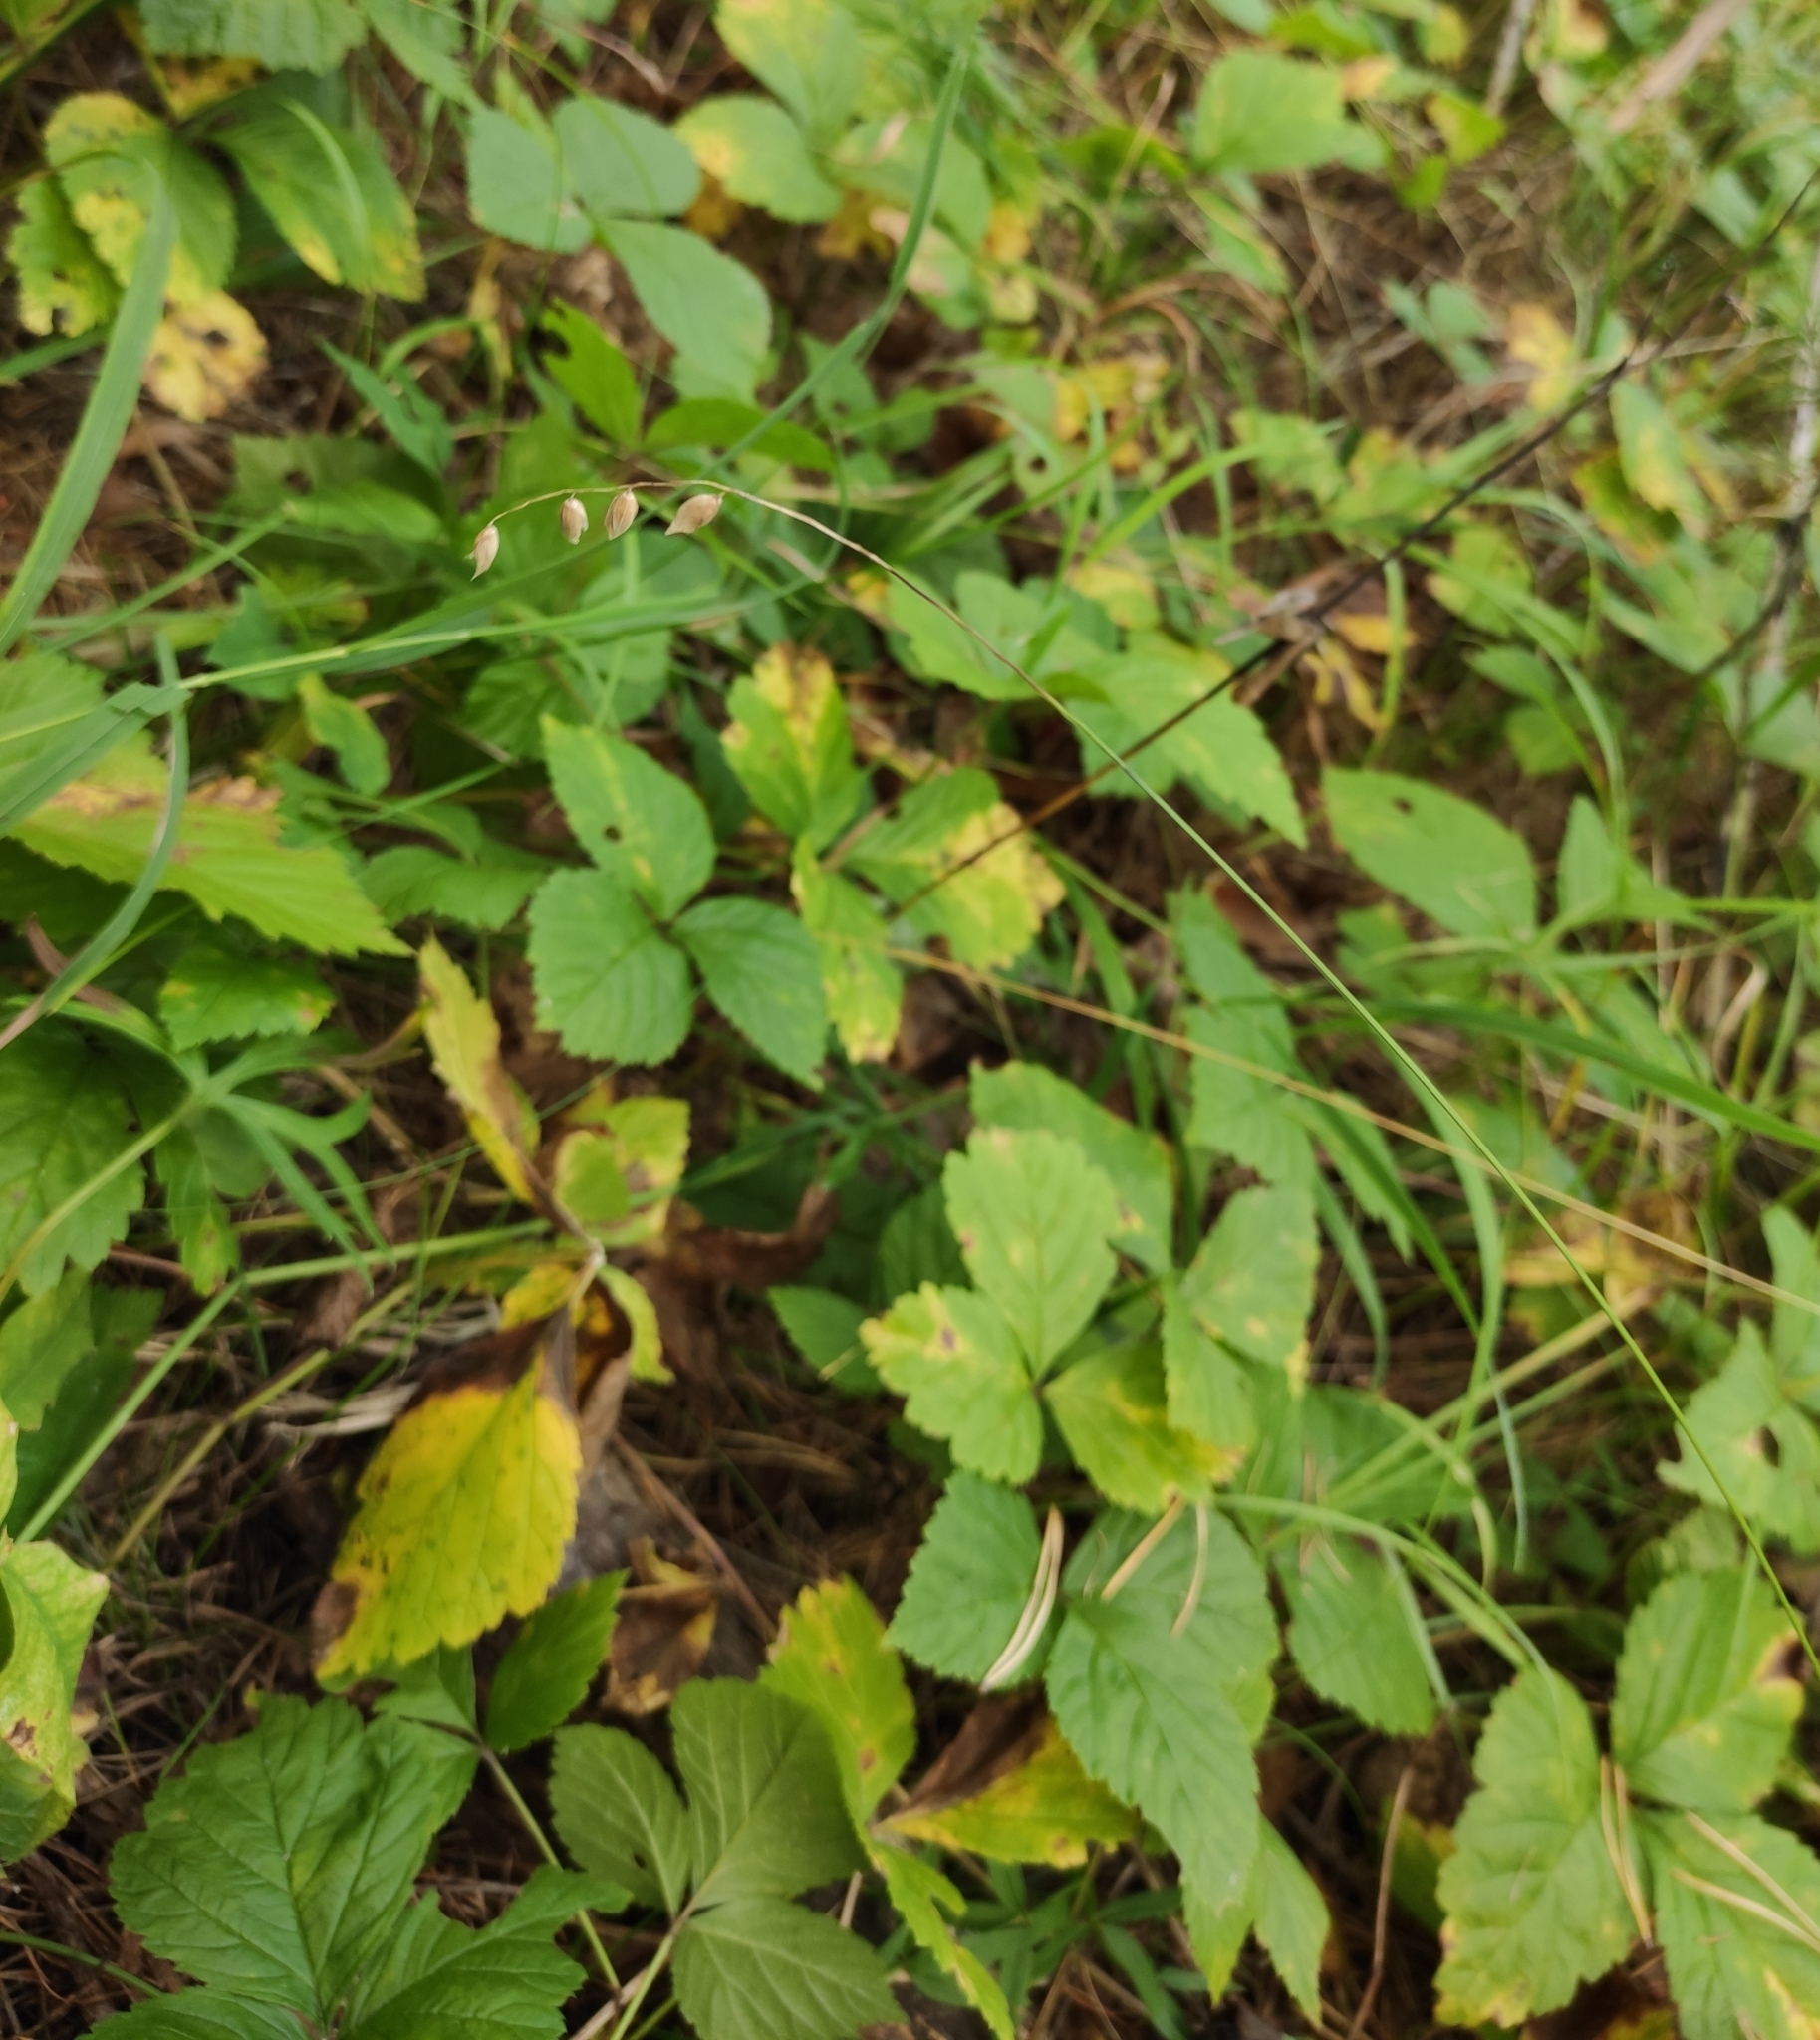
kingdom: Plantae
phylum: Tracheophyta
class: Liliopsida
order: Poales
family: Poaceae
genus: Melica
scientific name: Melica nutans
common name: Mountain melick
